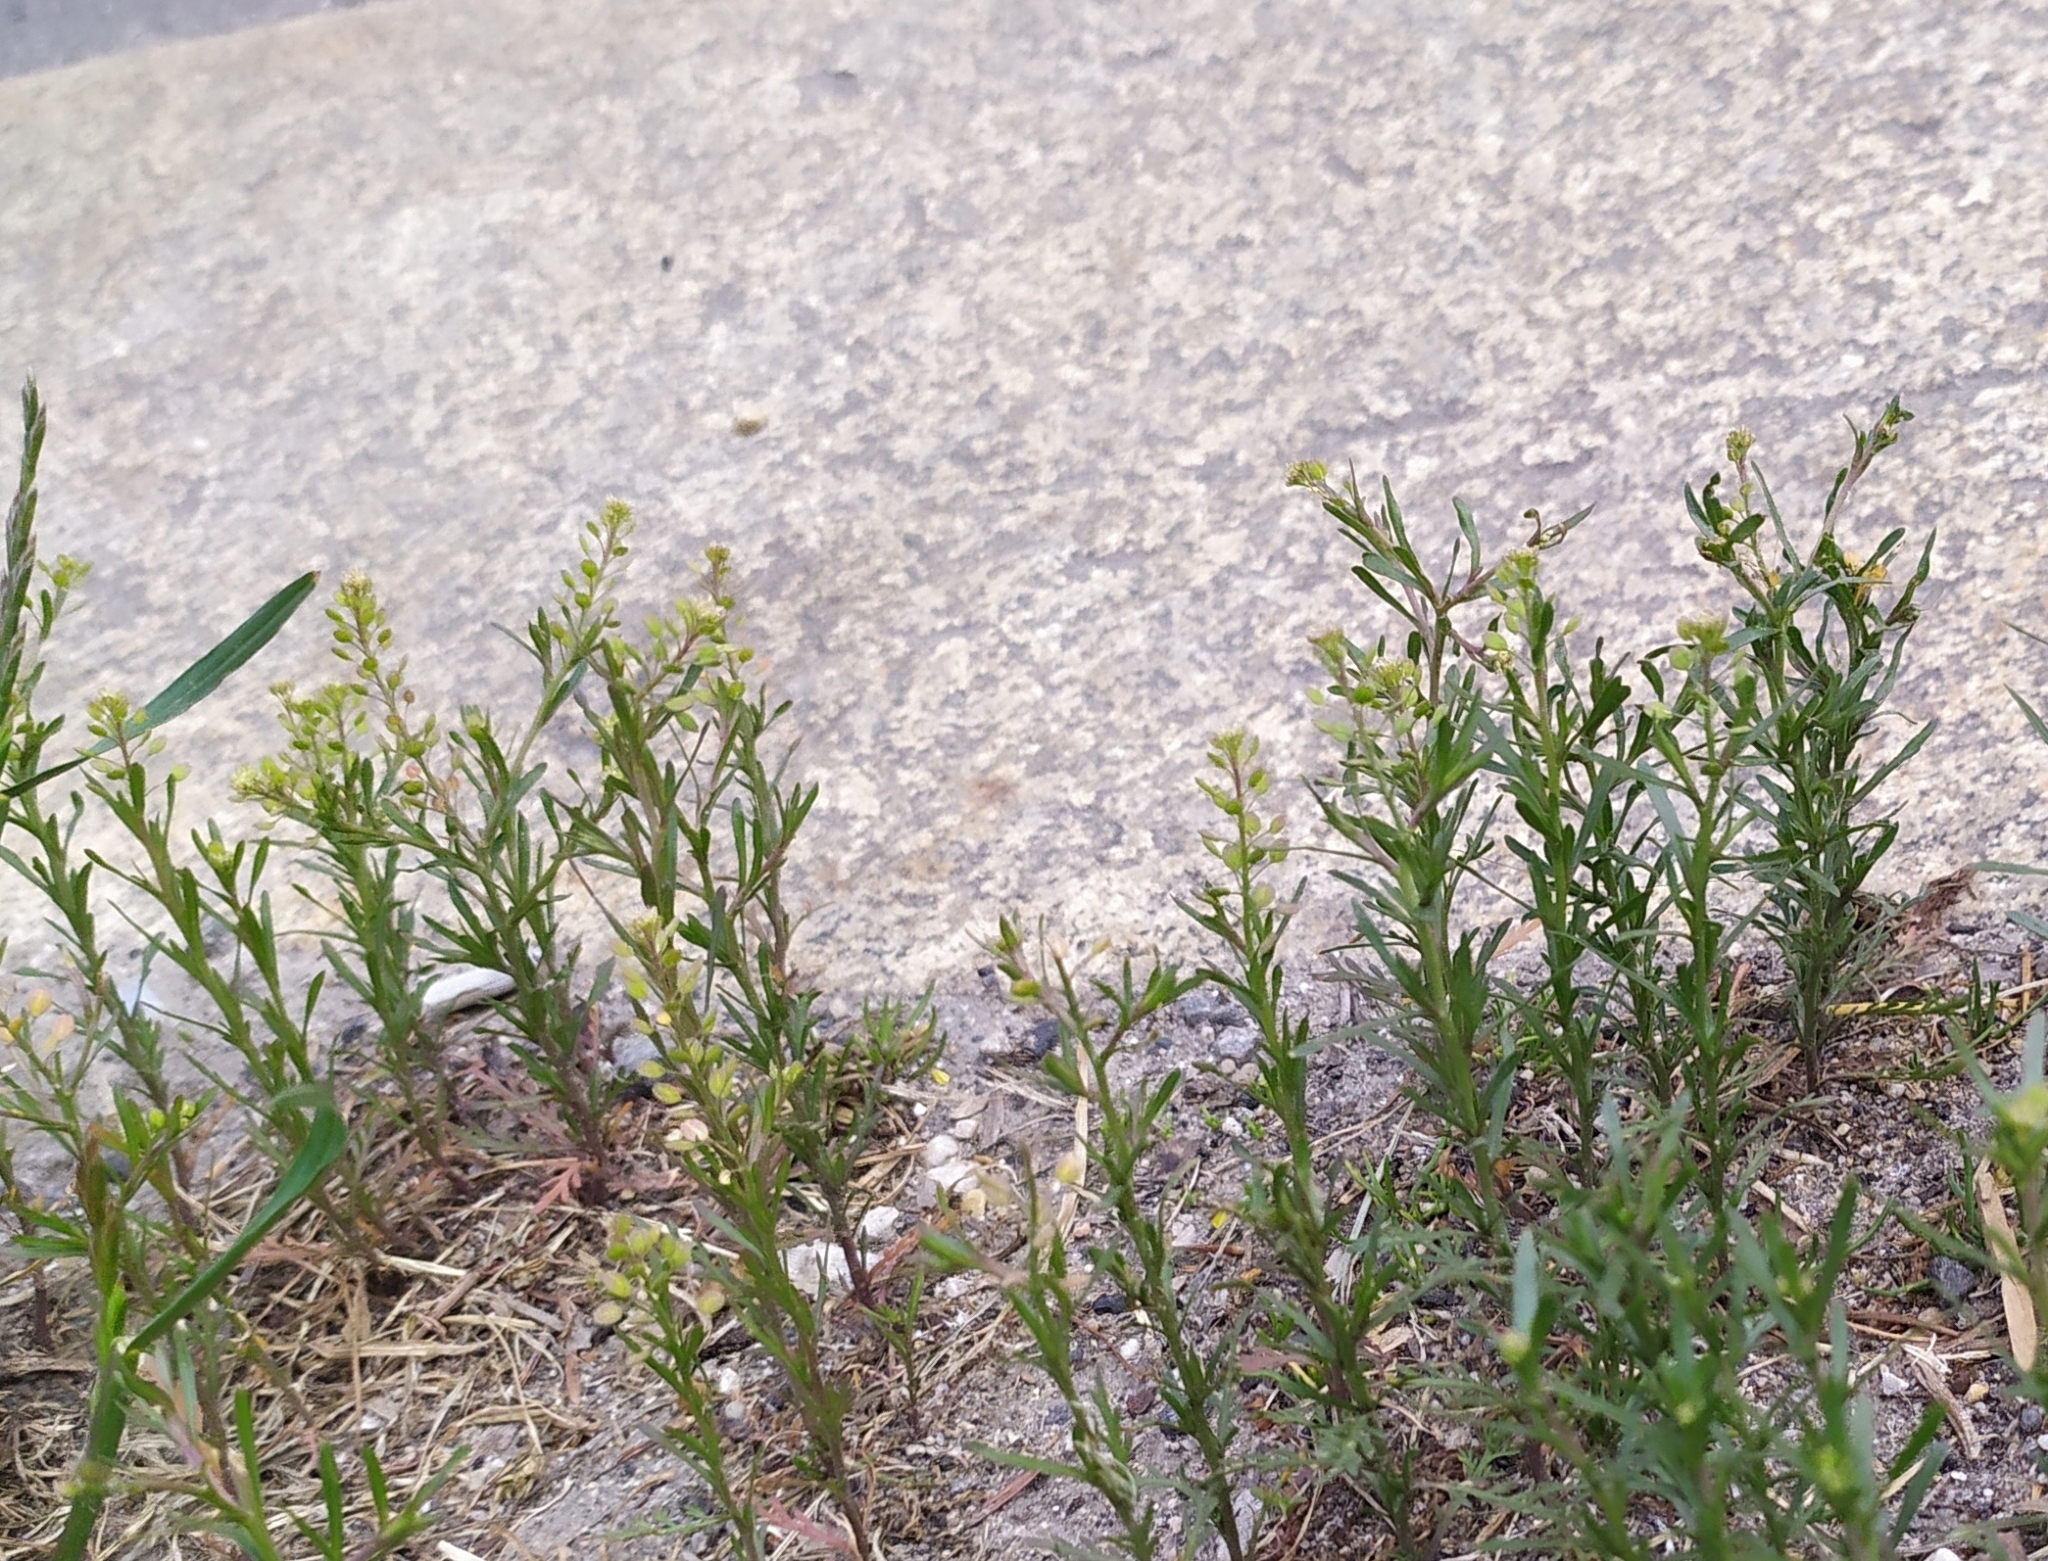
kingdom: Plantae
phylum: Tracheophyta
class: Magnoliopsida
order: Brassicales
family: Brassicaceae
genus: Lepidium
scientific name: Lepidium ruderale
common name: Narrow-leaved pepperwort
